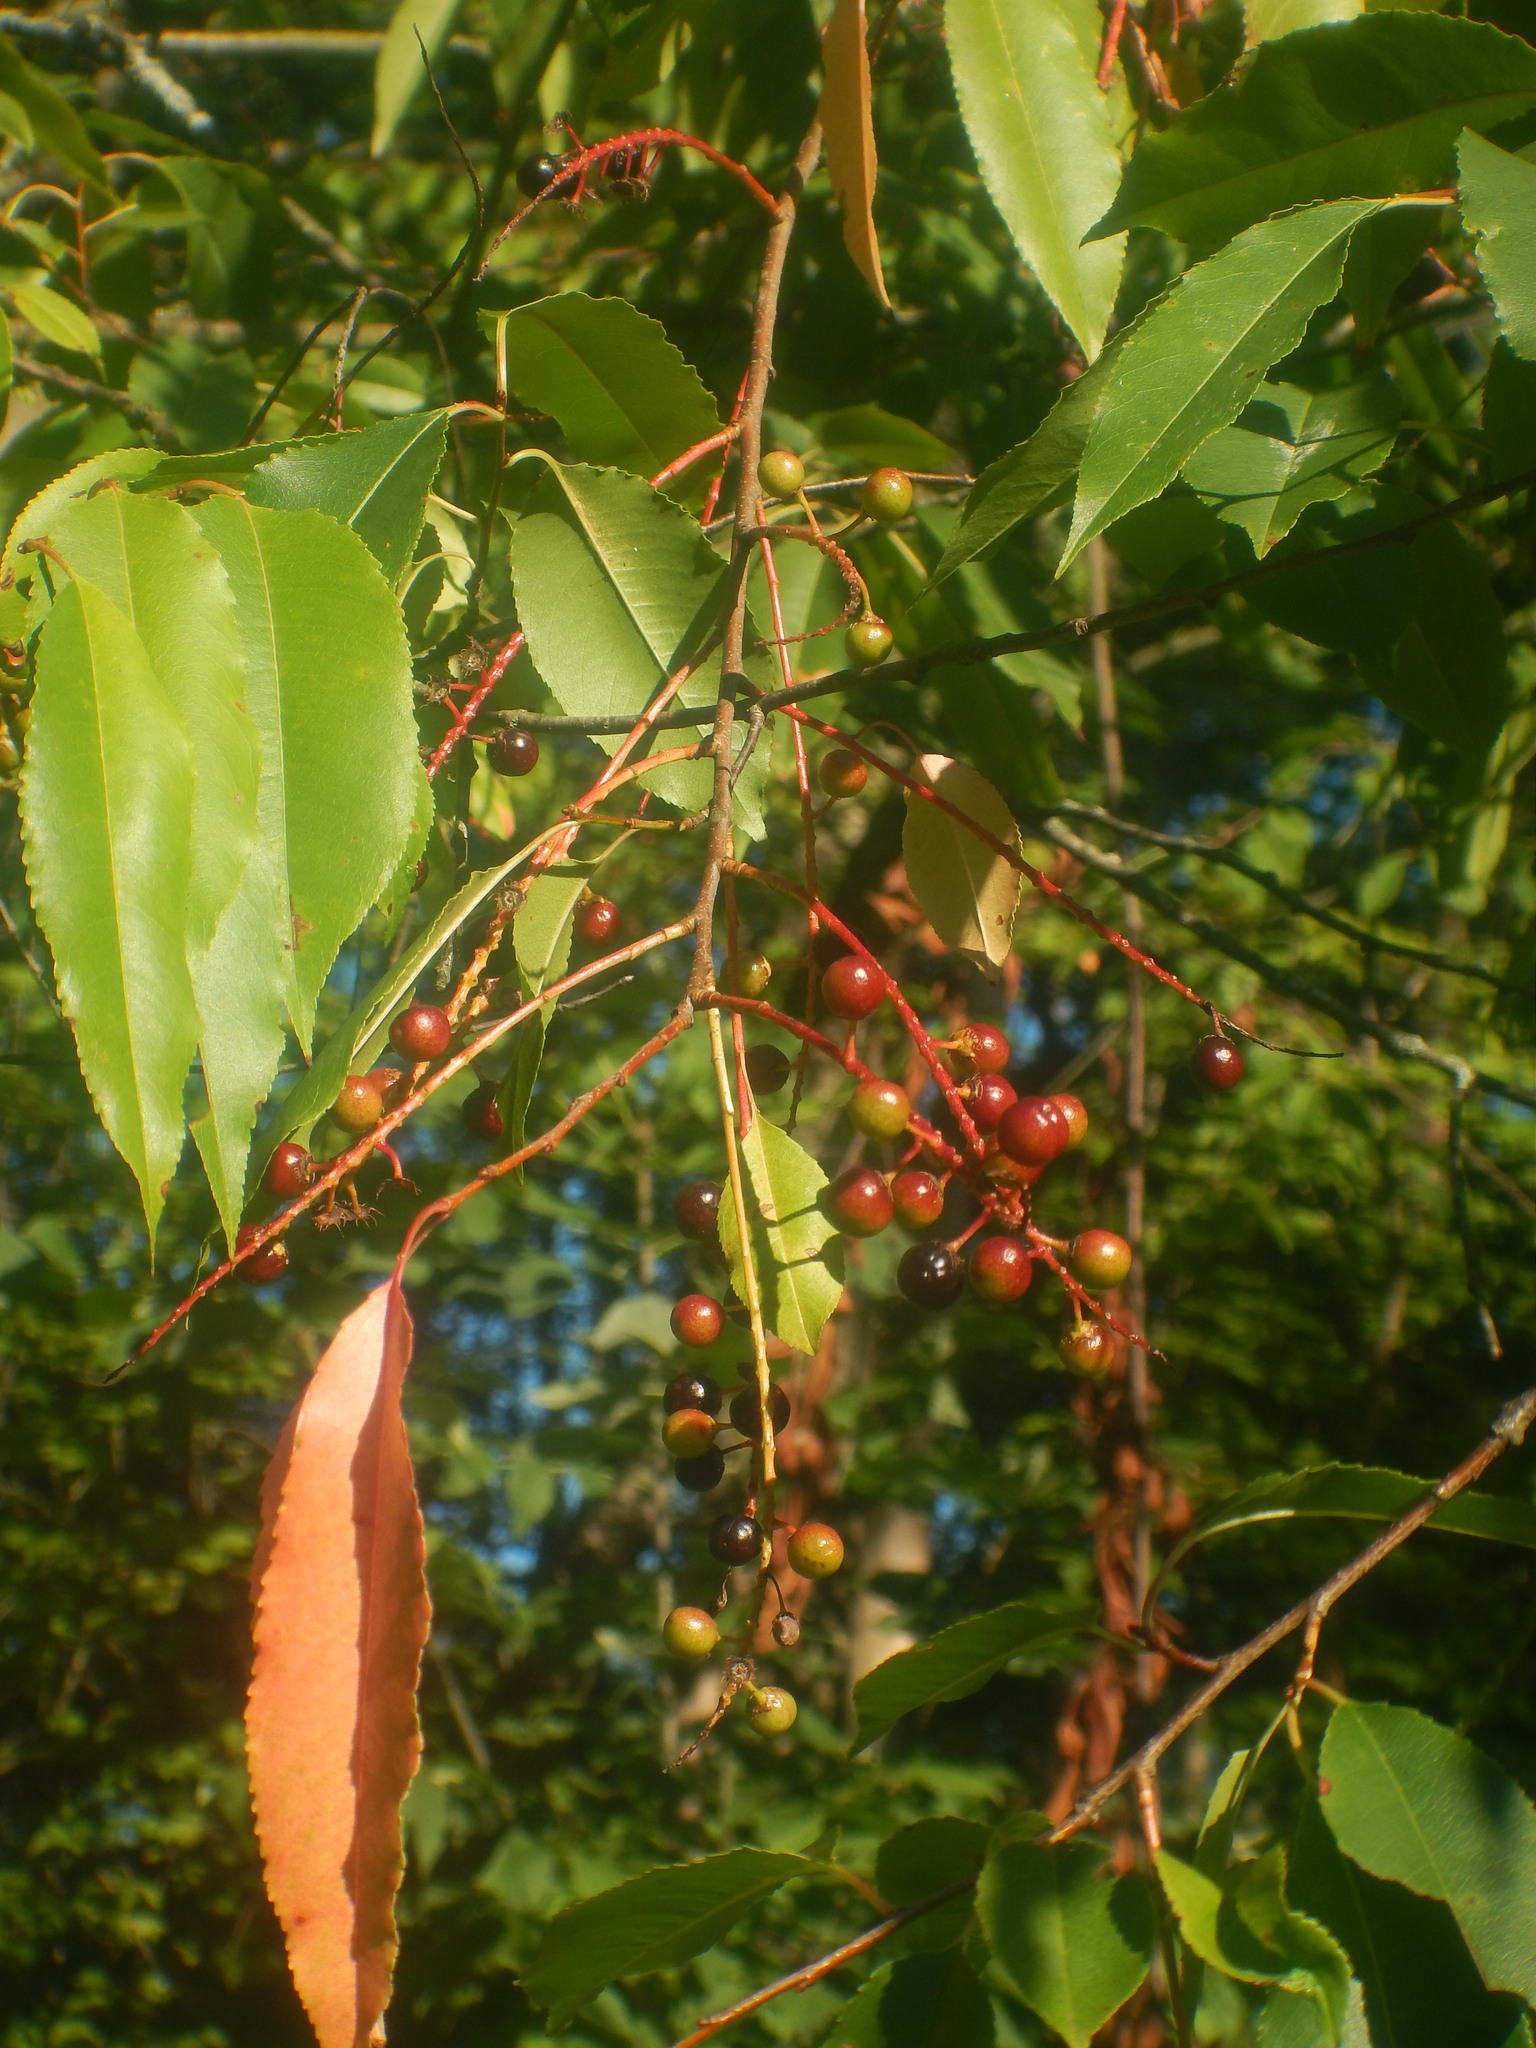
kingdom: Plantae
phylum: Tracheophyta
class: Magnoliopsida
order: Rosales
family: Rosaceae
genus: Prunus
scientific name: Prunus serotina
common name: Black cherry
